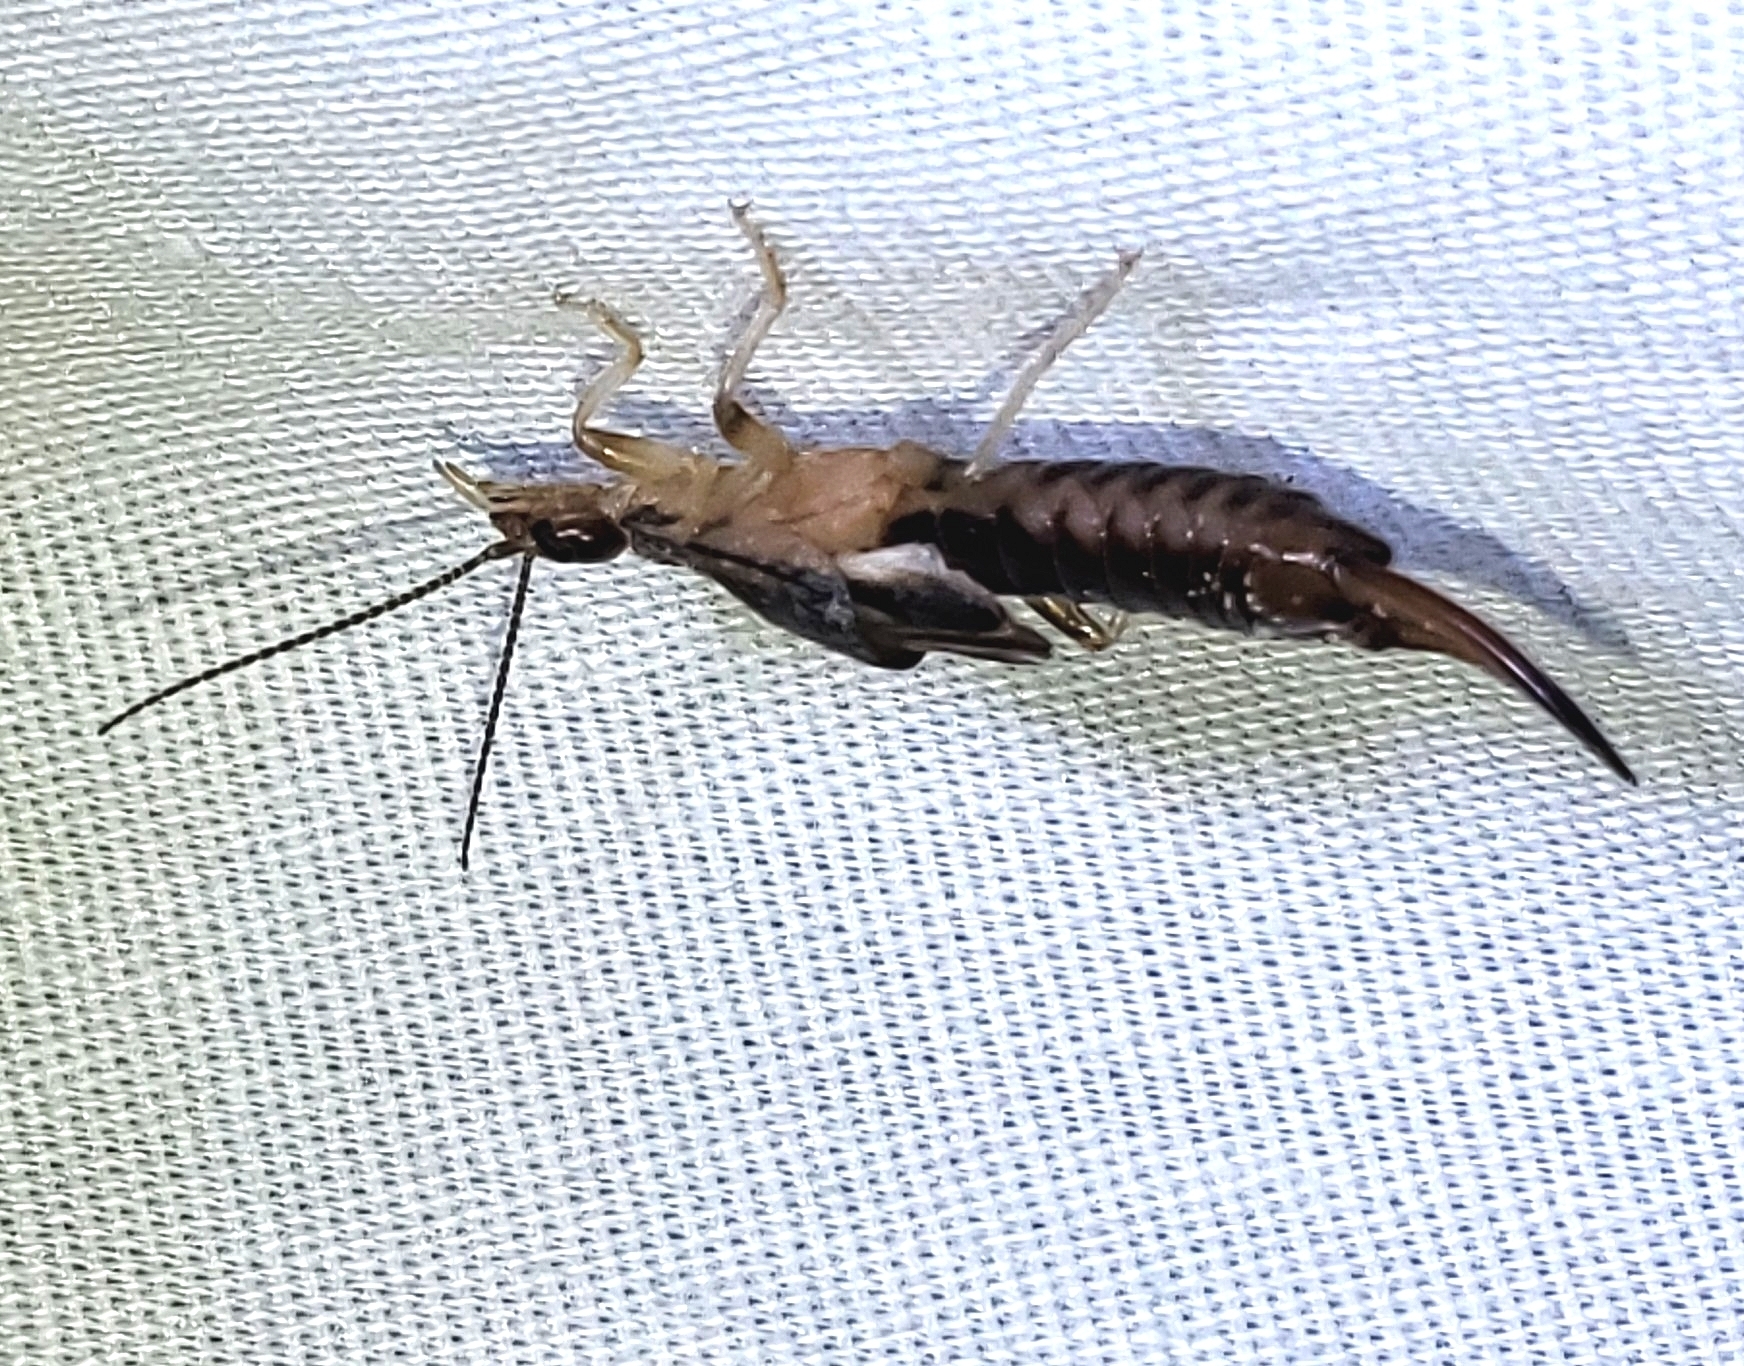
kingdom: Animalia
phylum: Arthropoda
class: Insecta
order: Dermaptera
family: Labiduridae
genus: Labidura
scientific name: Labidura riparia
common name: Striped earwig
